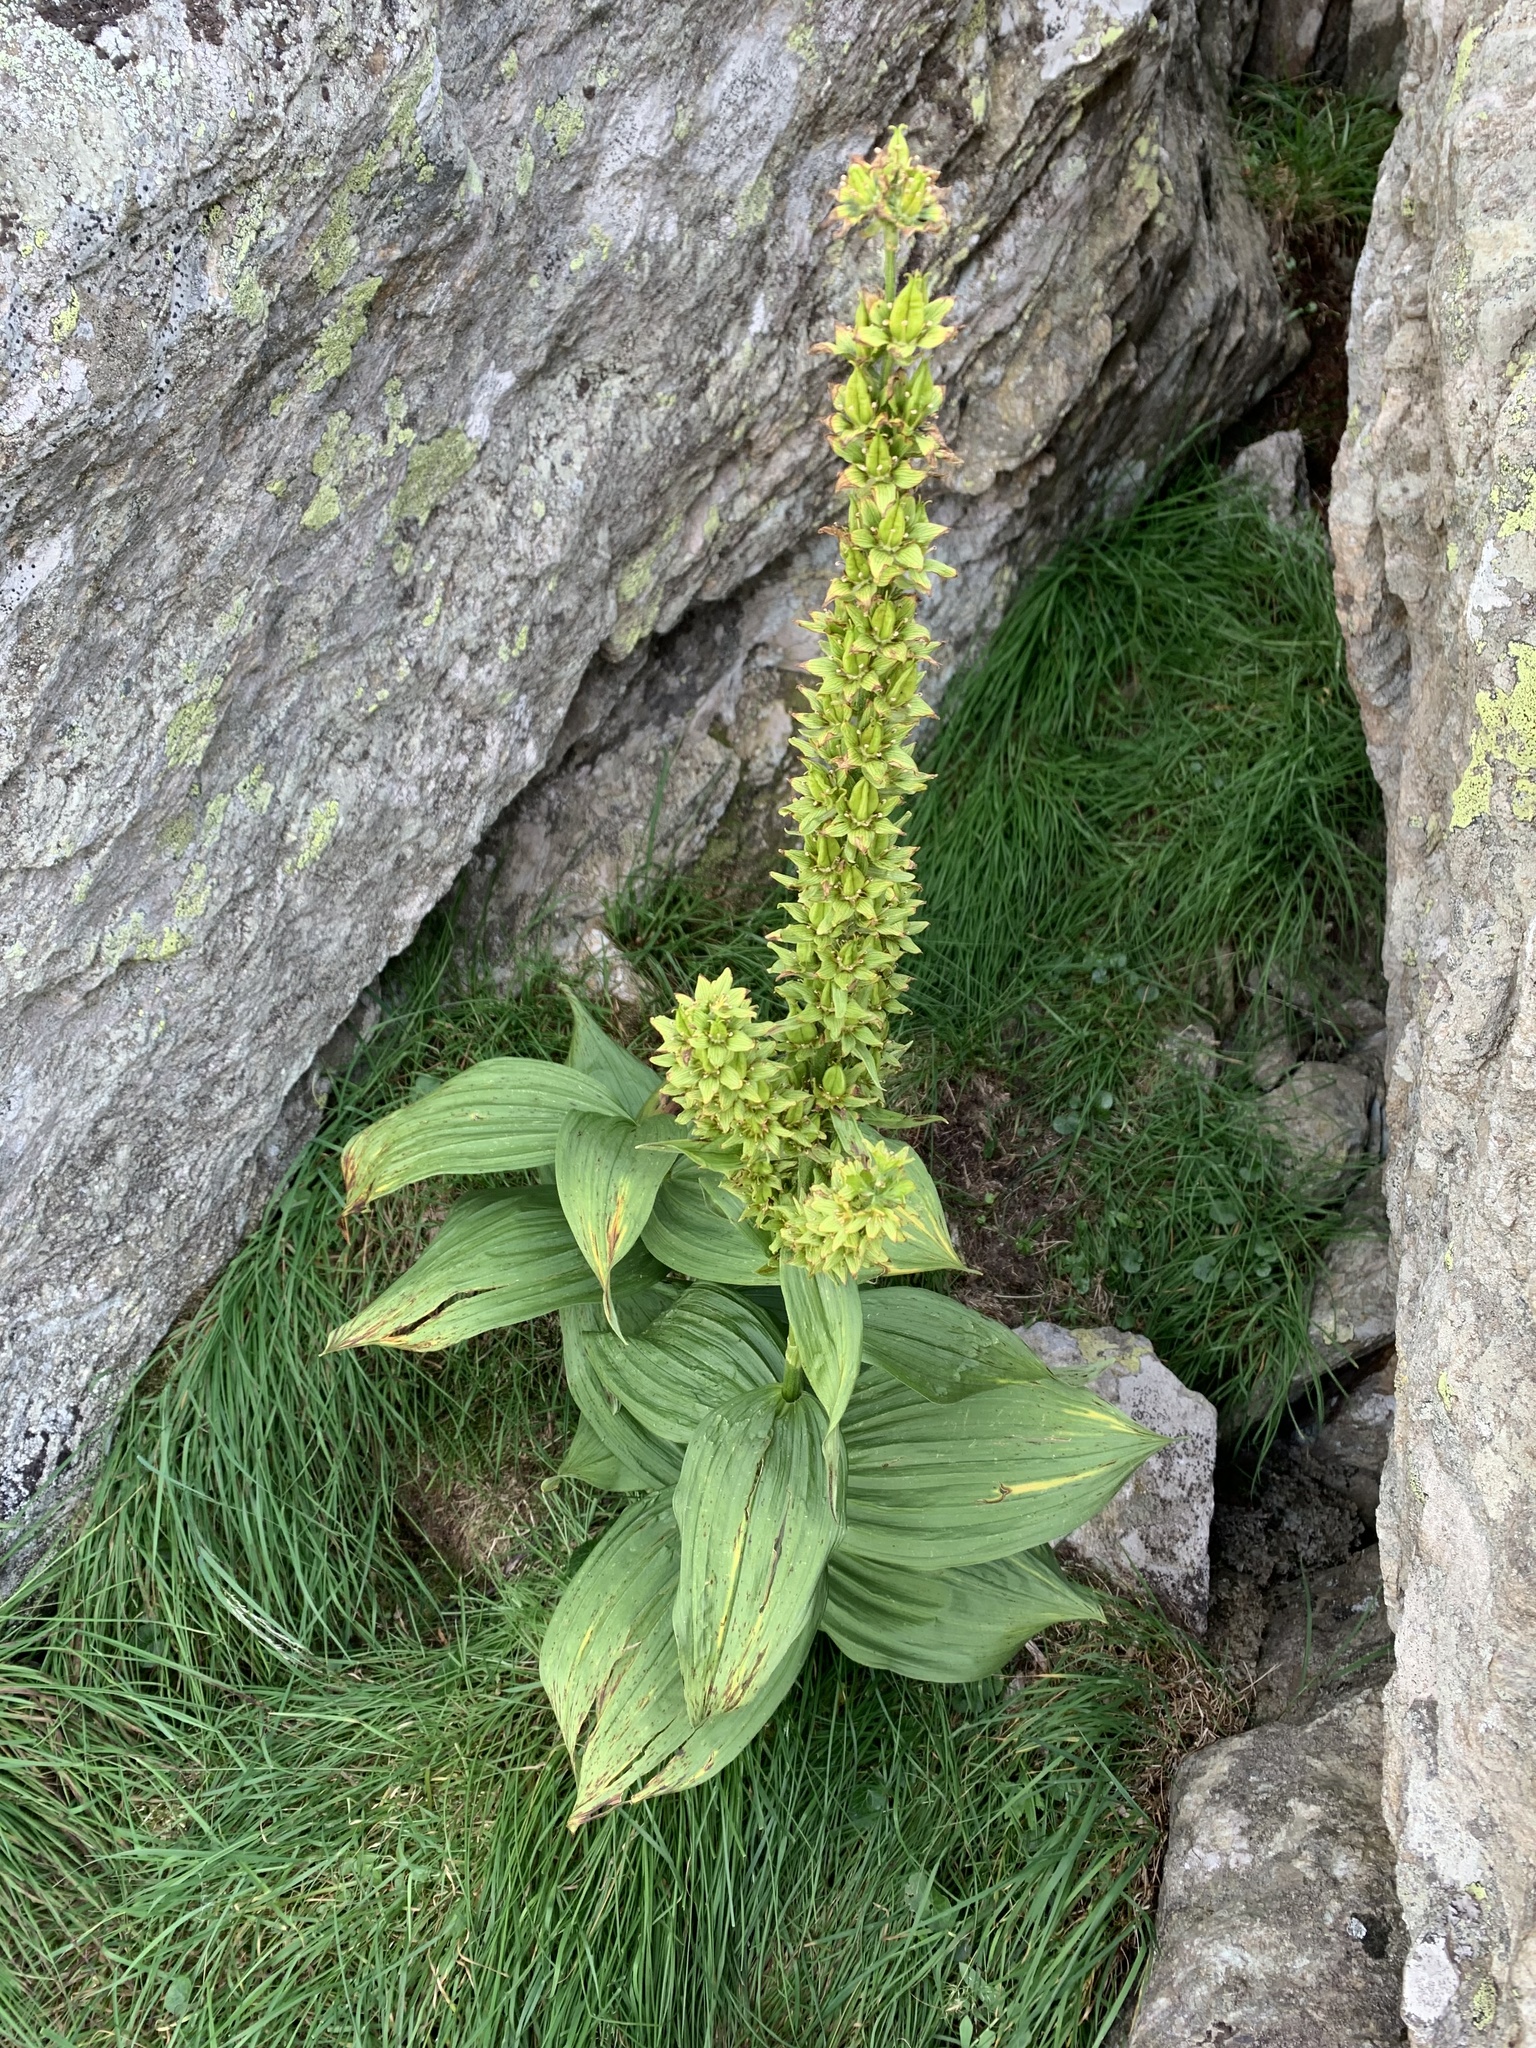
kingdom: Plantae
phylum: Tracheophyta
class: Liliopsida
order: Liliales
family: Melanthiaceae
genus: Veratrum
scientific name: Veratrum album
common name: White veratrum
